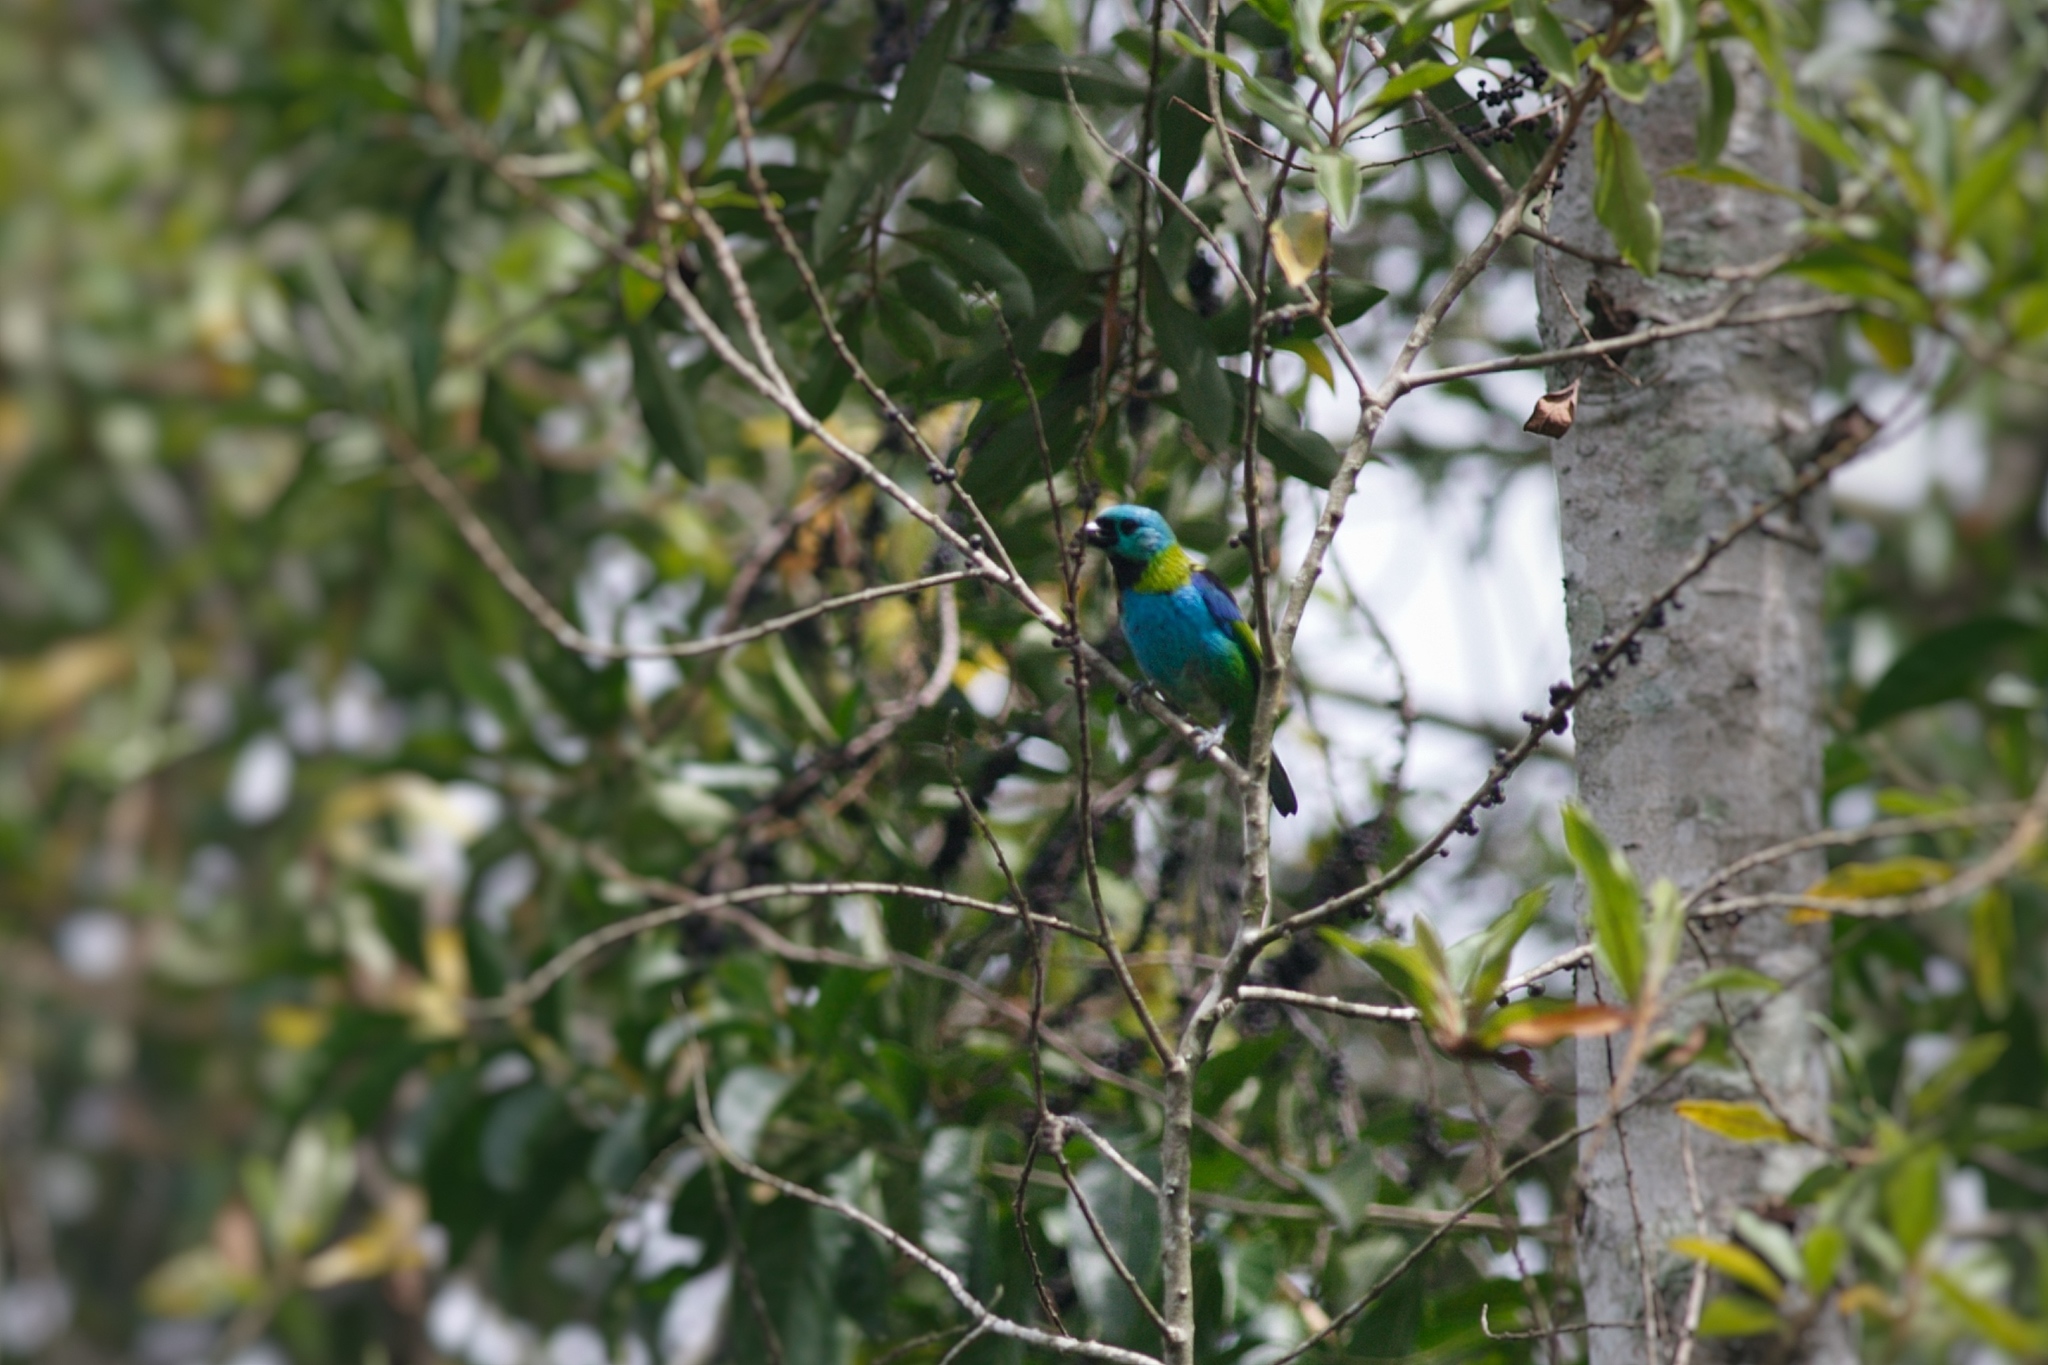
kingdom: Animalia
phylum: Chordata
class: Aves
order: Passeriformes
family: Thraupidae
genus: Tangara
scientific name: Tangara seledon
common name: Green-headed tanager
